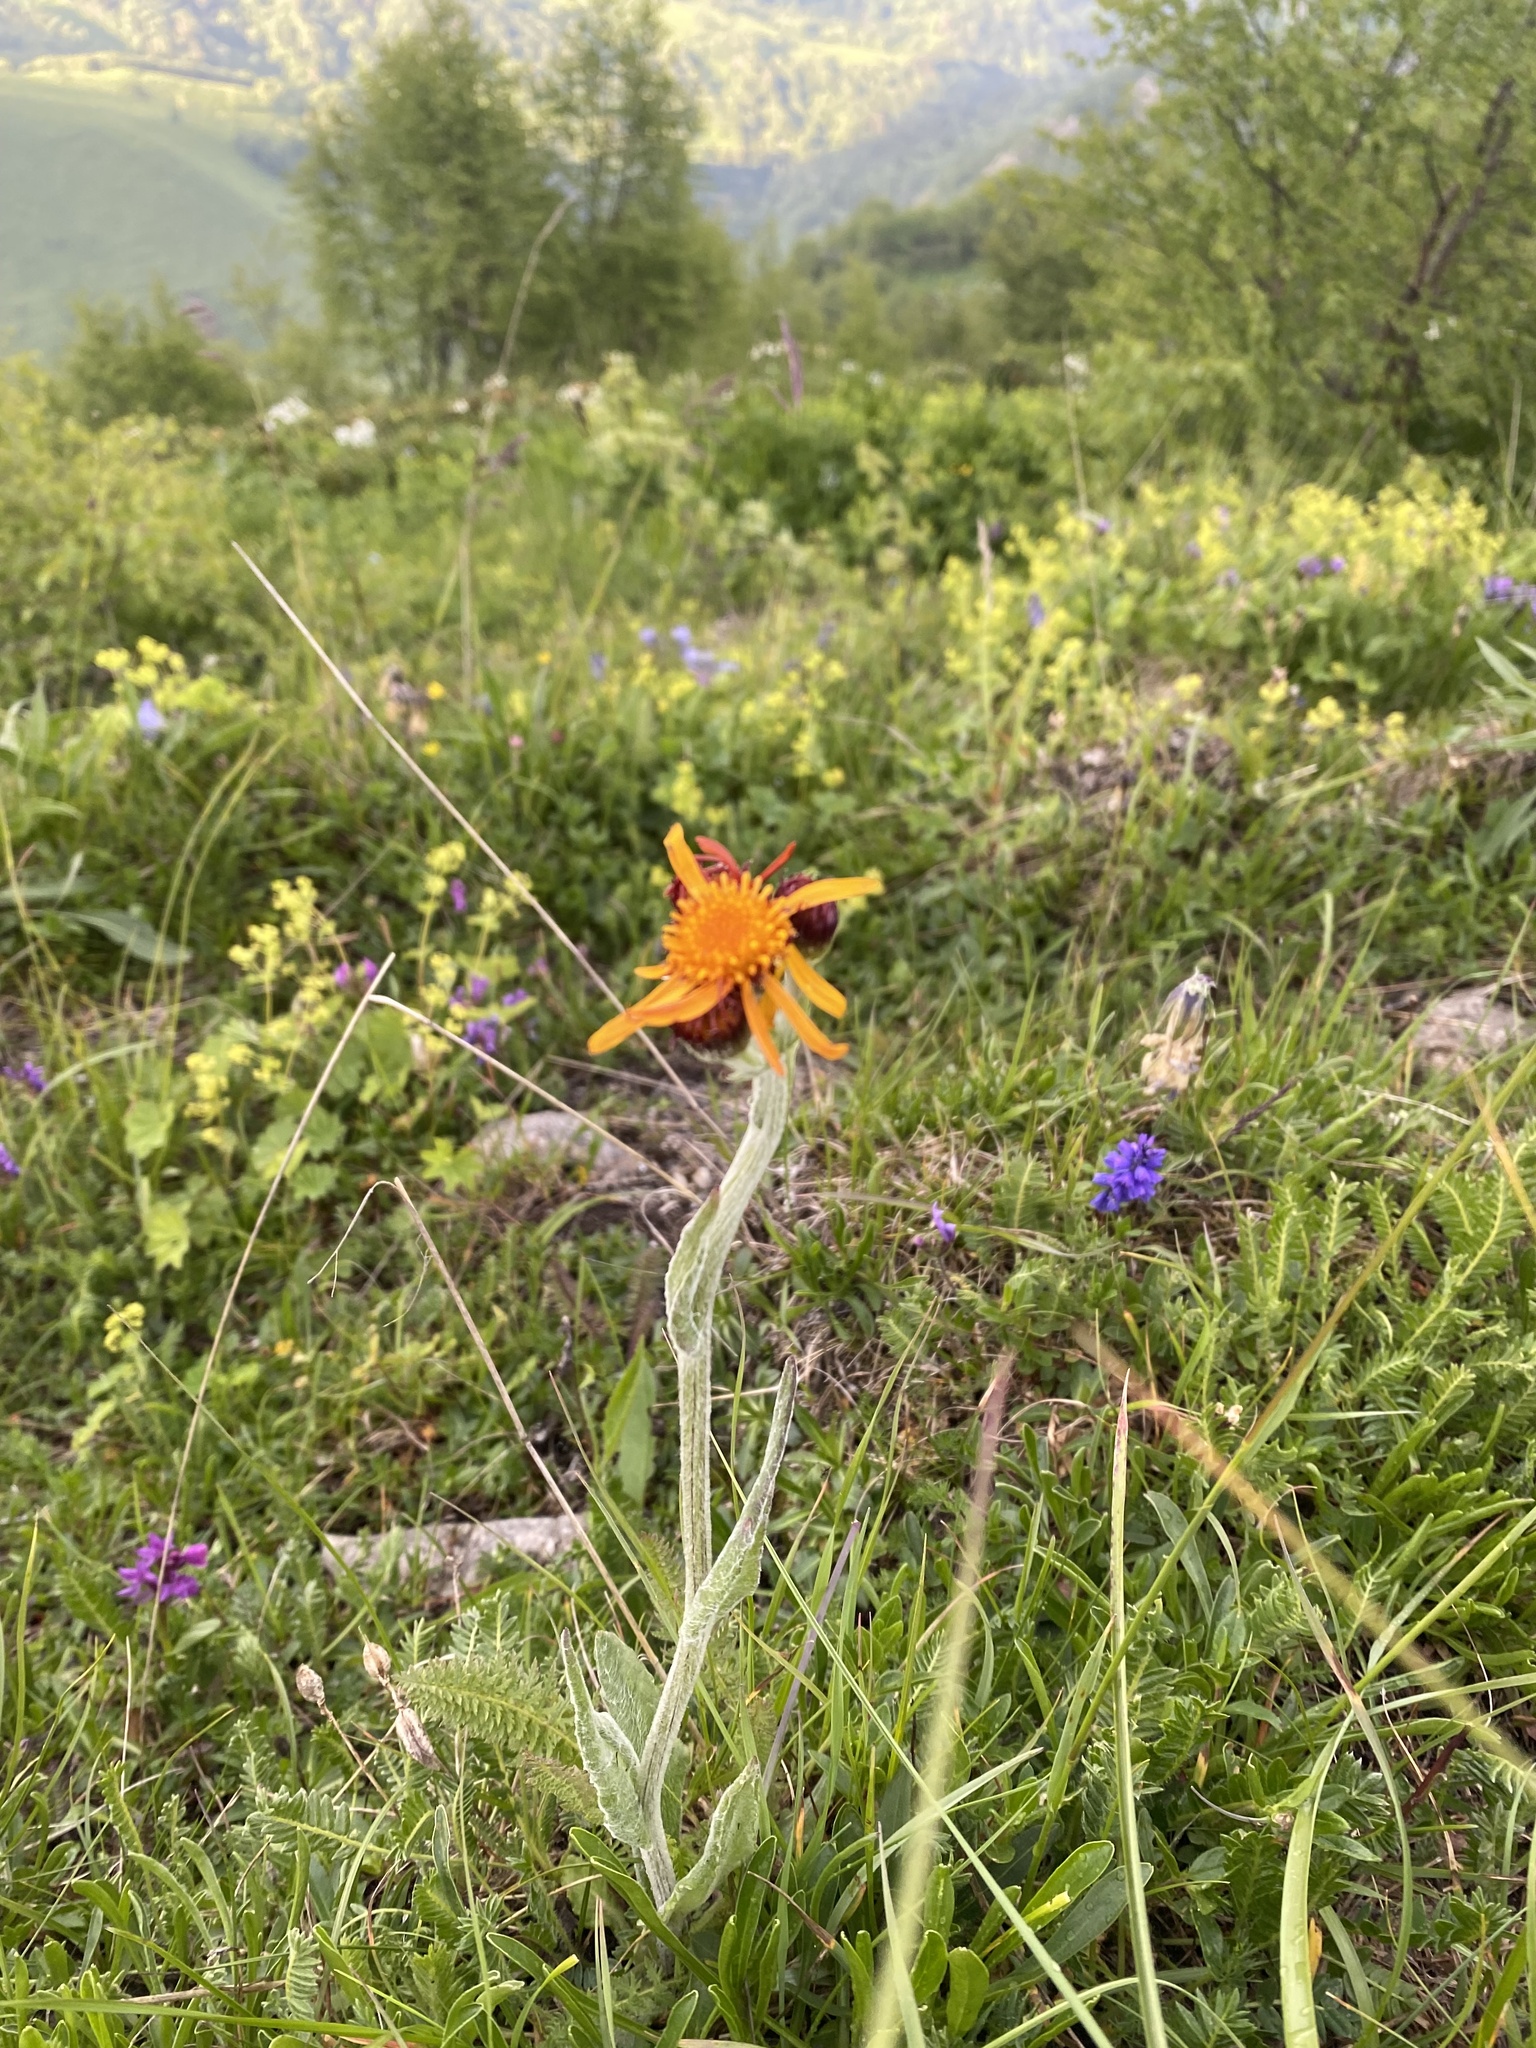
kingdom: Plantae
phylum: Tracheophyta
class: Magnoliopsida
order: Asterales
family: Asteraceae
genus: Tephroseris
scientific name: Tephroseris integrifolia
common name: Field fleawort
